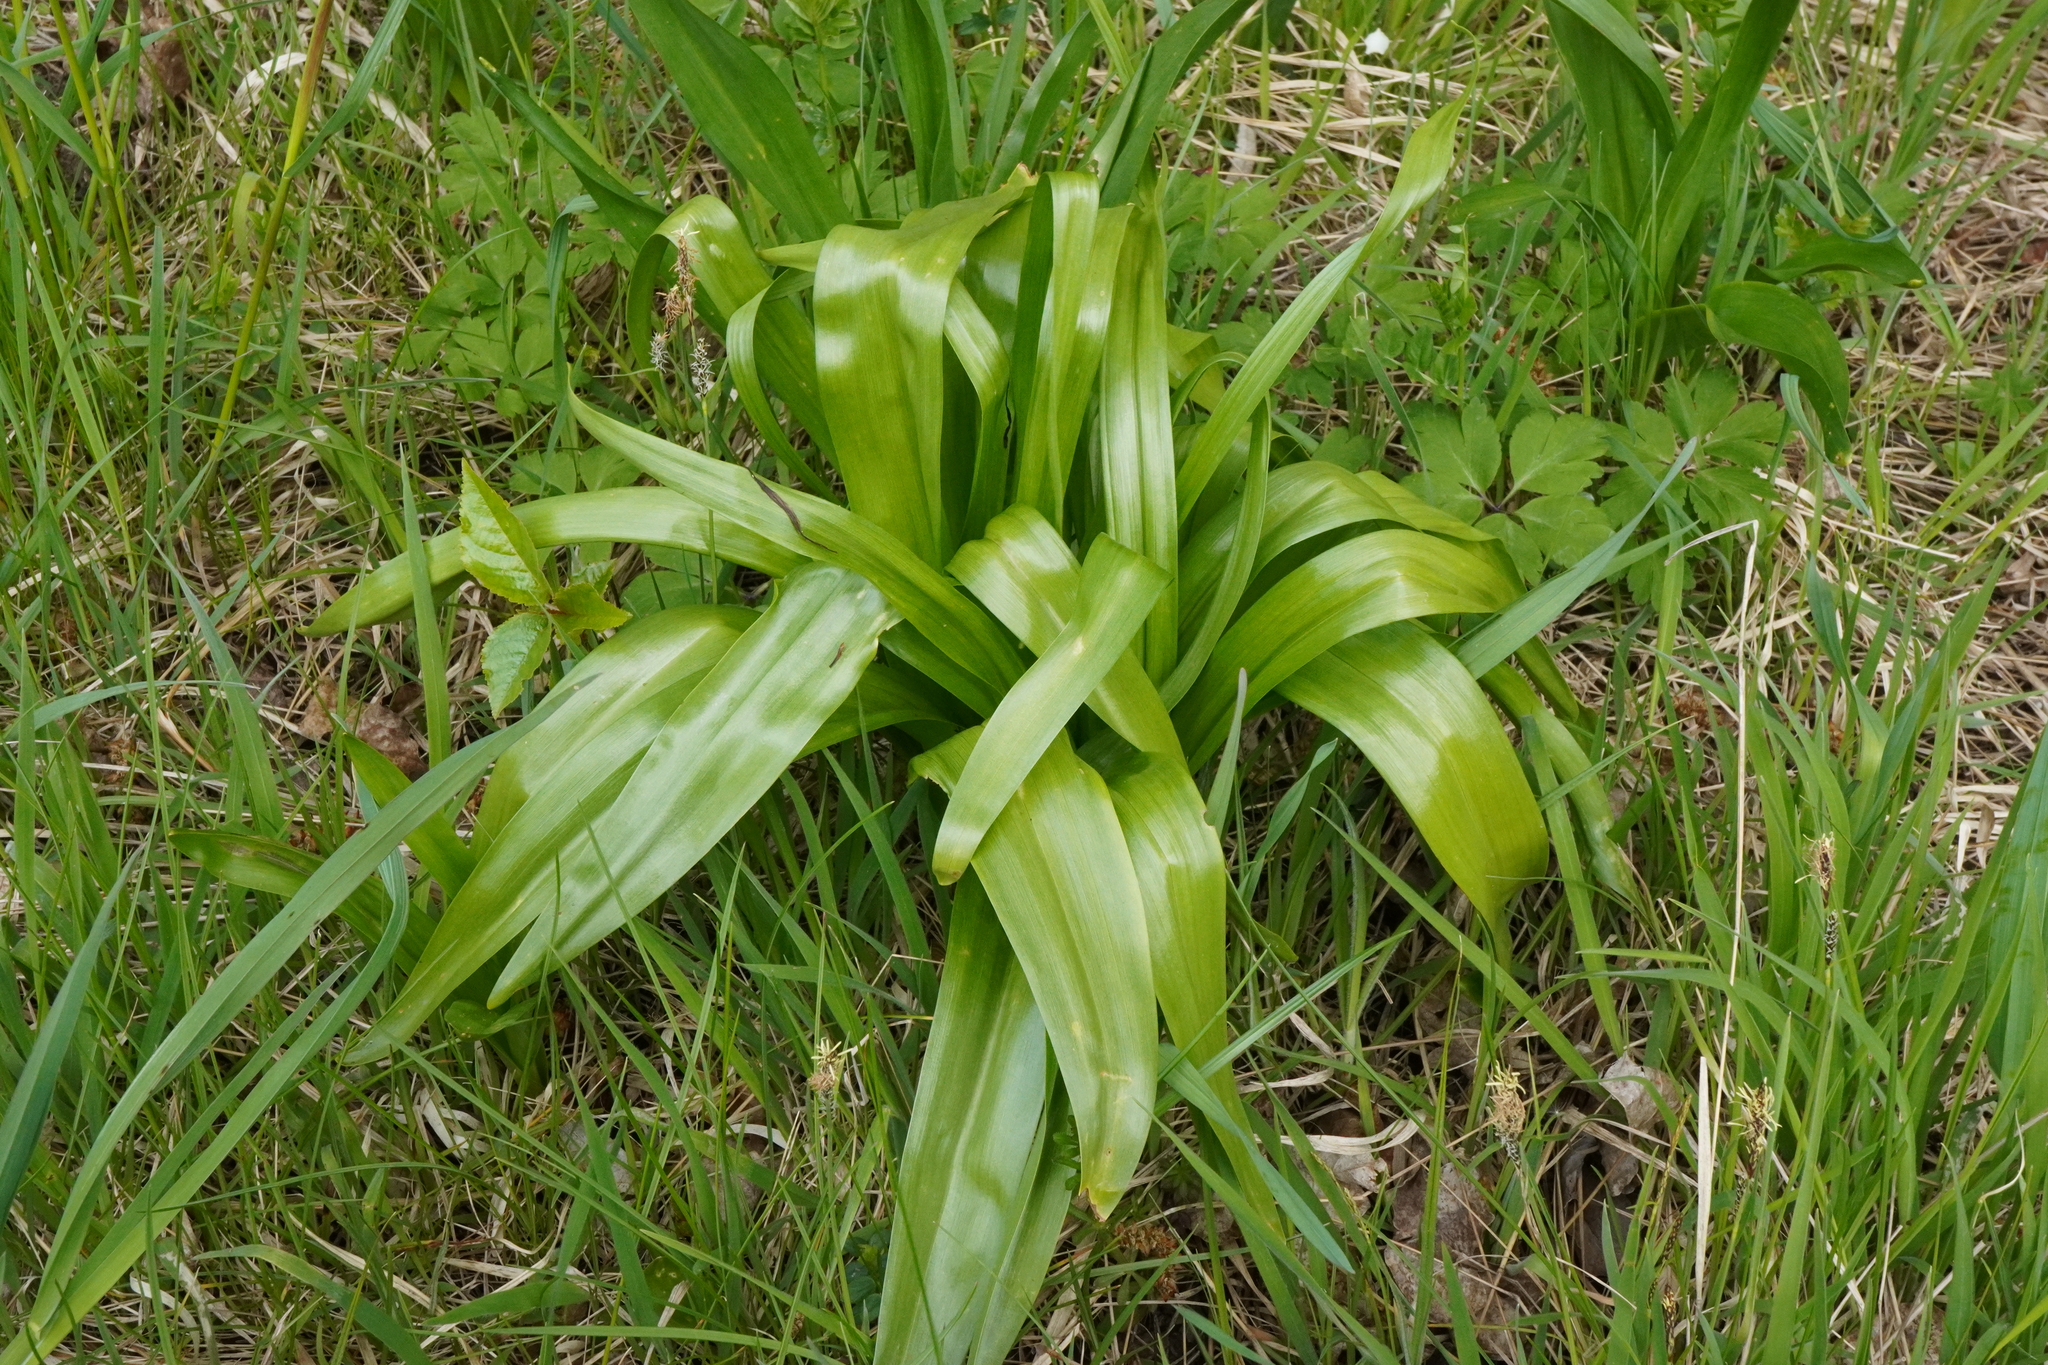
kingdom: Plantae
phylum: Tracheophyta
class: Liliopsida
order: Liliales
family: Colchicaceae
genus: Colchicum
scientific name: Colchicum autumnale
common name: Autumn crocus
